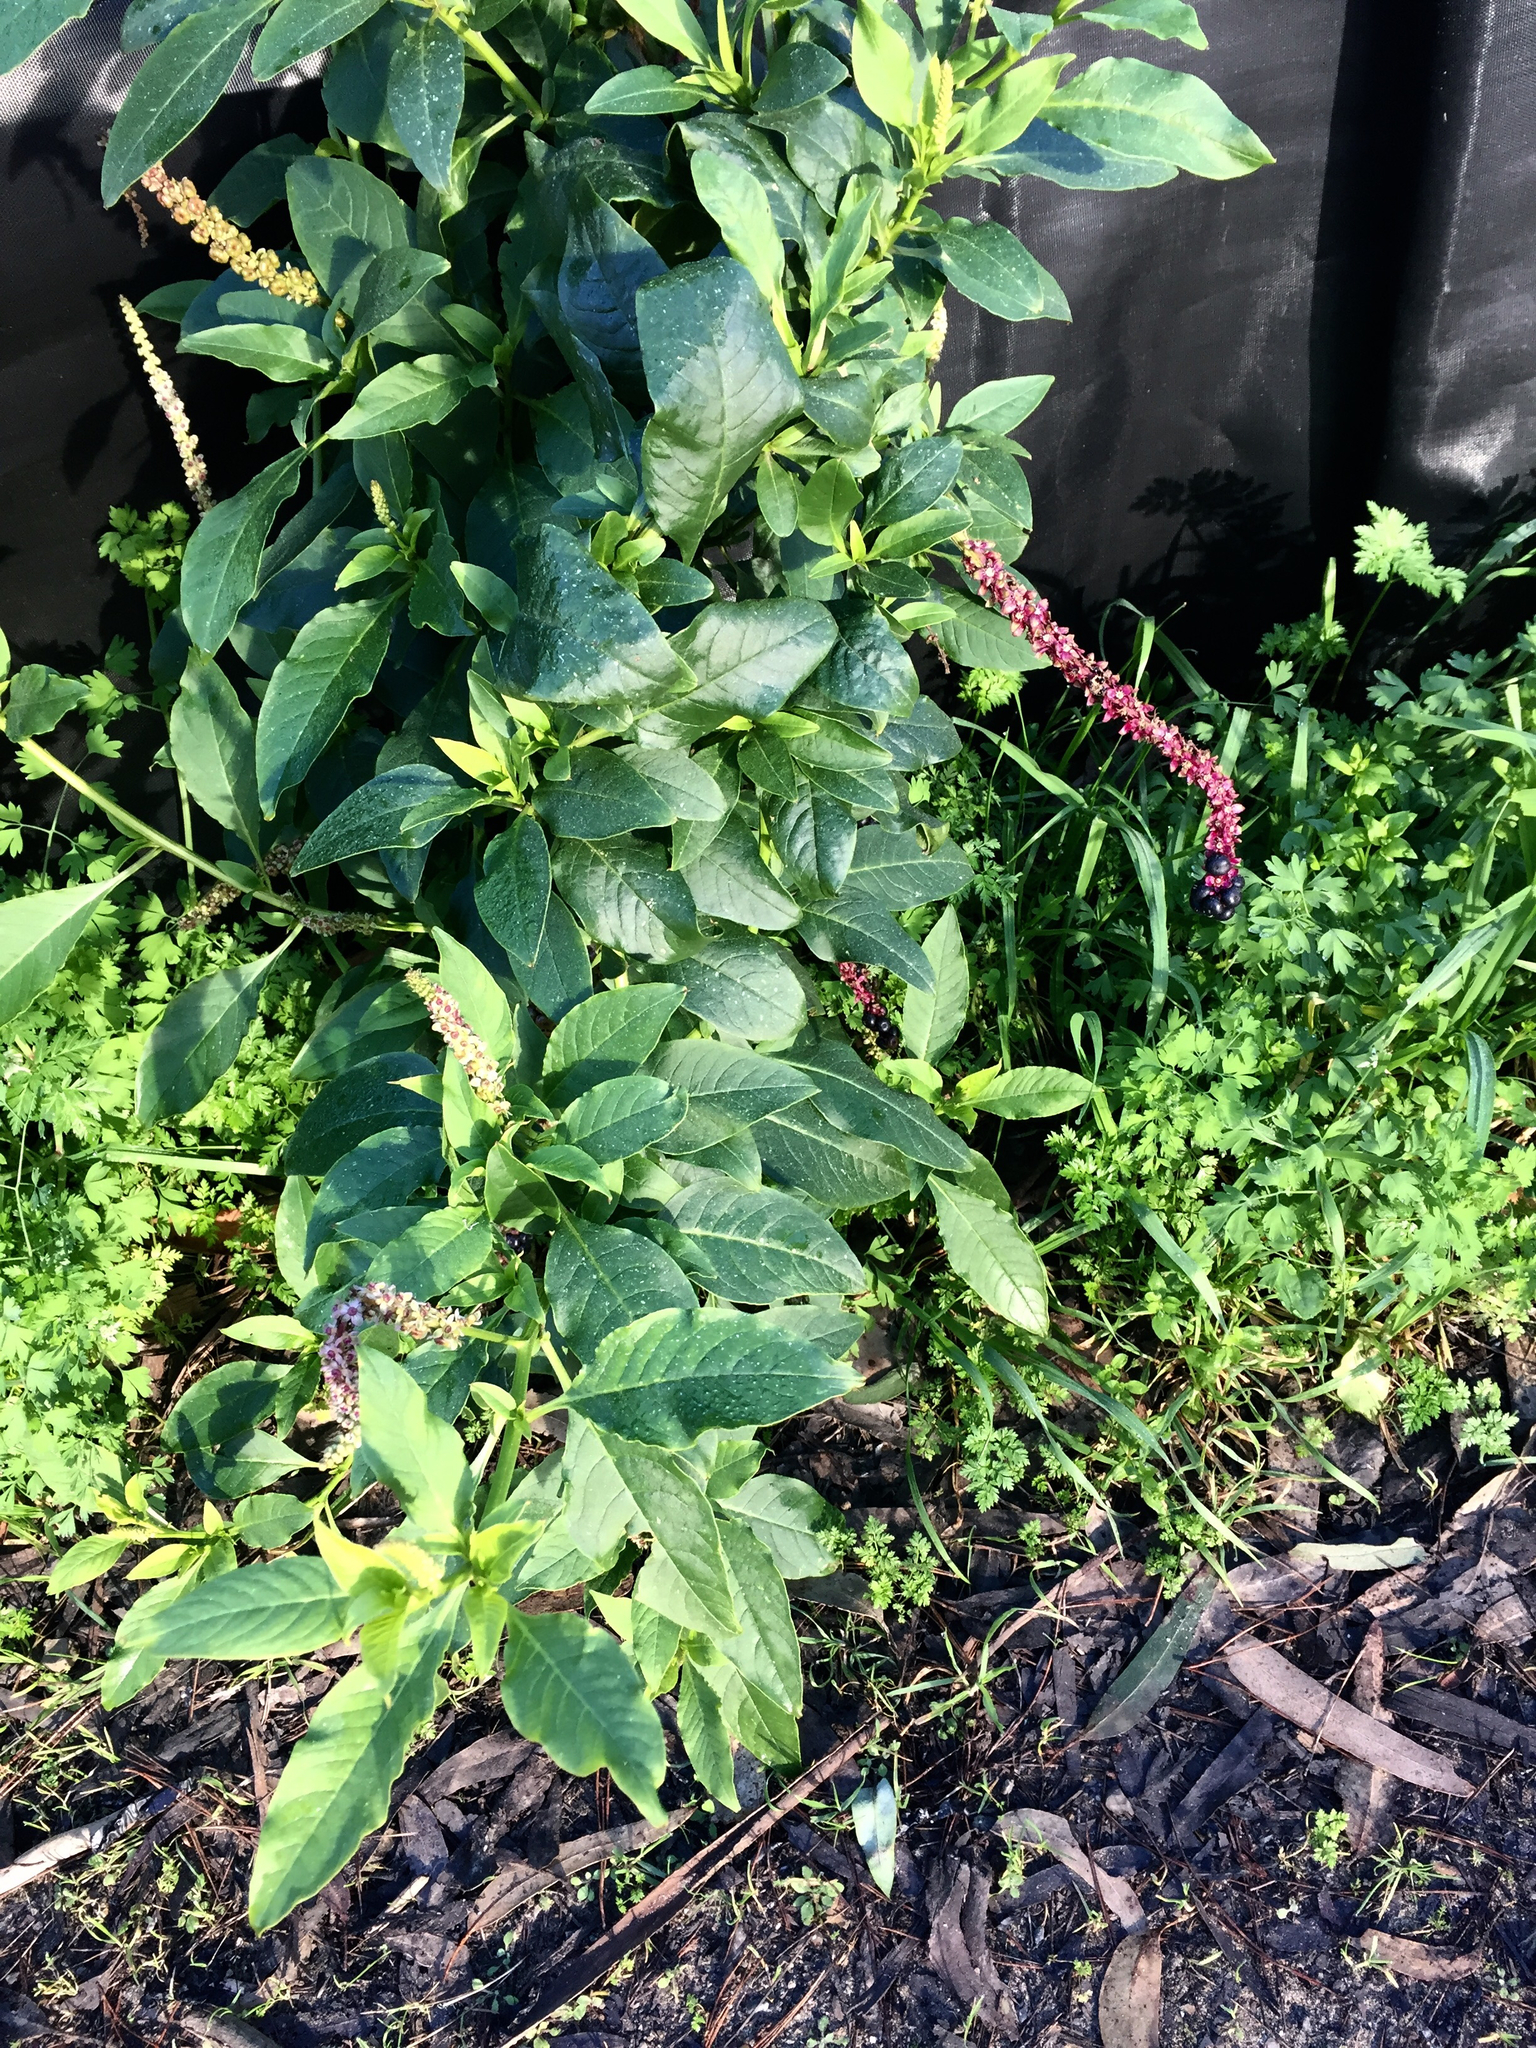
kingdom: Plantae
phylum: Tracheophyta
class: Magnoliopsida
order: Caryophyllales
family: Phytolaccaceae
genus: Phytolacca
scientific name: Phytolacca americana
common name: American pokeweed
